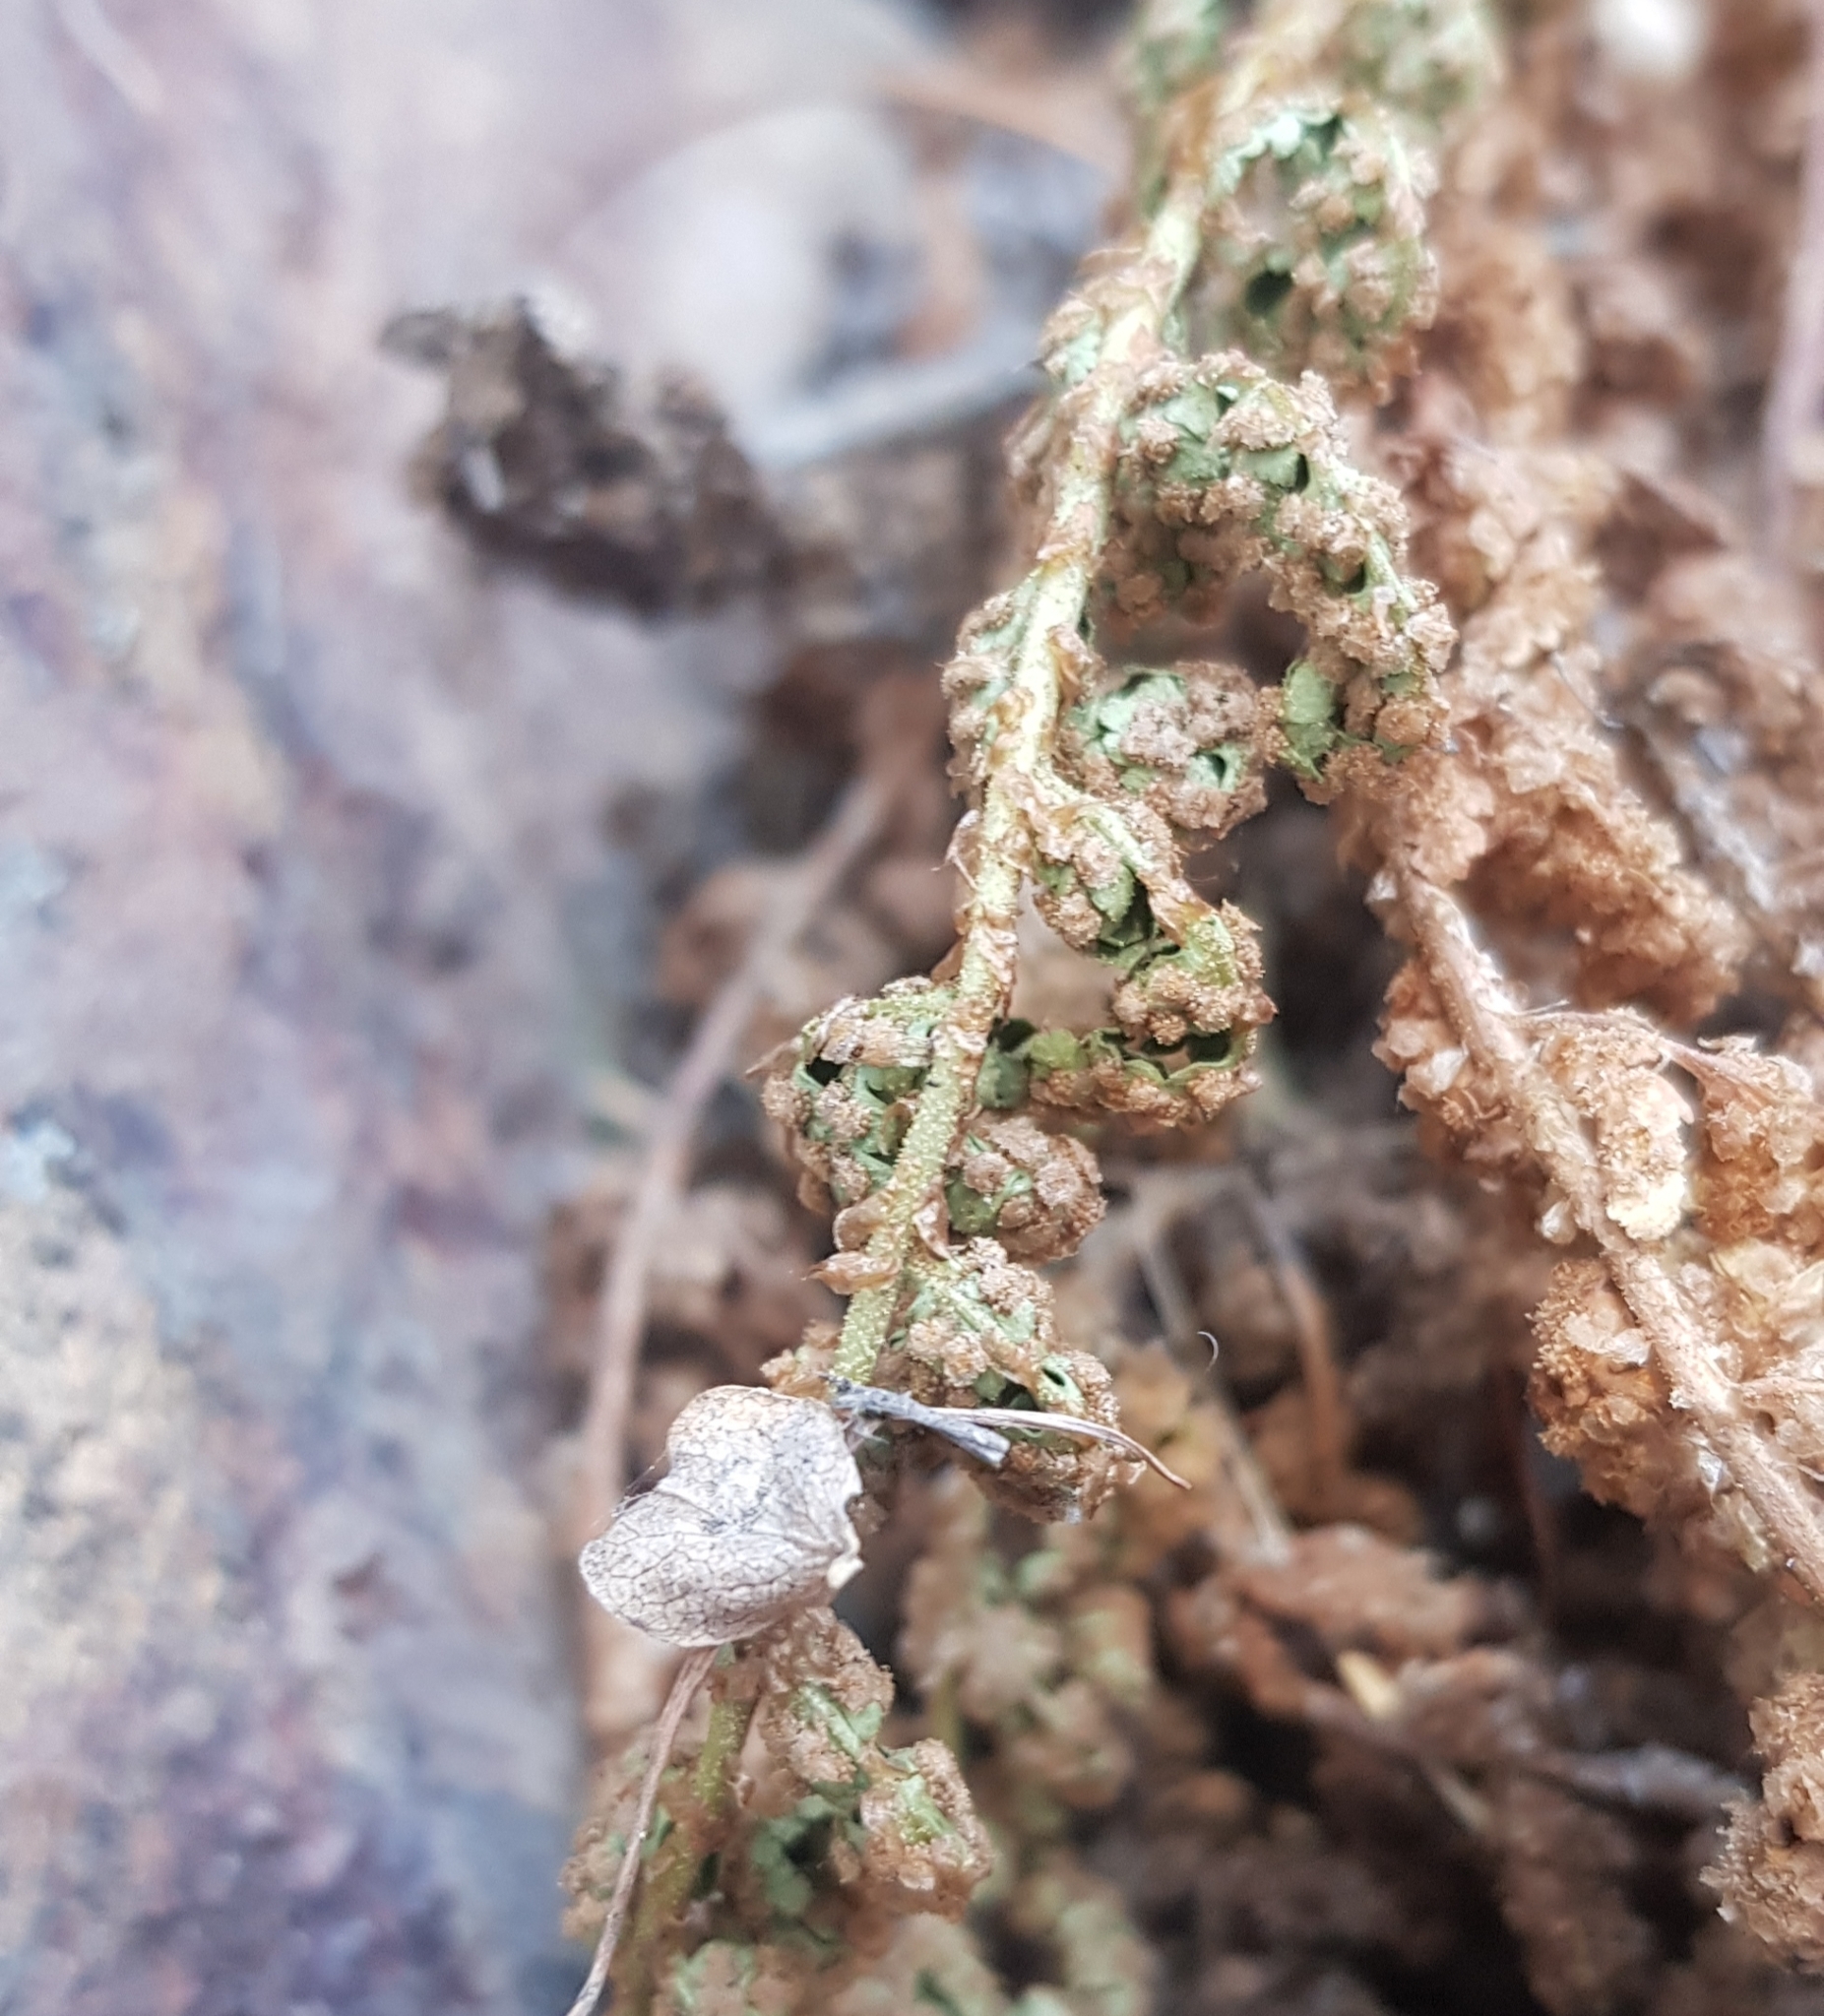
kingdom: Plantae
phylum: Tracheophyta
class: Polypodiopsida
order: Polypodiales
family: Dryopteridaceae
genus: Dryopteris
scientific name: Dryopteris fragrans
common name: Fragrant wood fern
